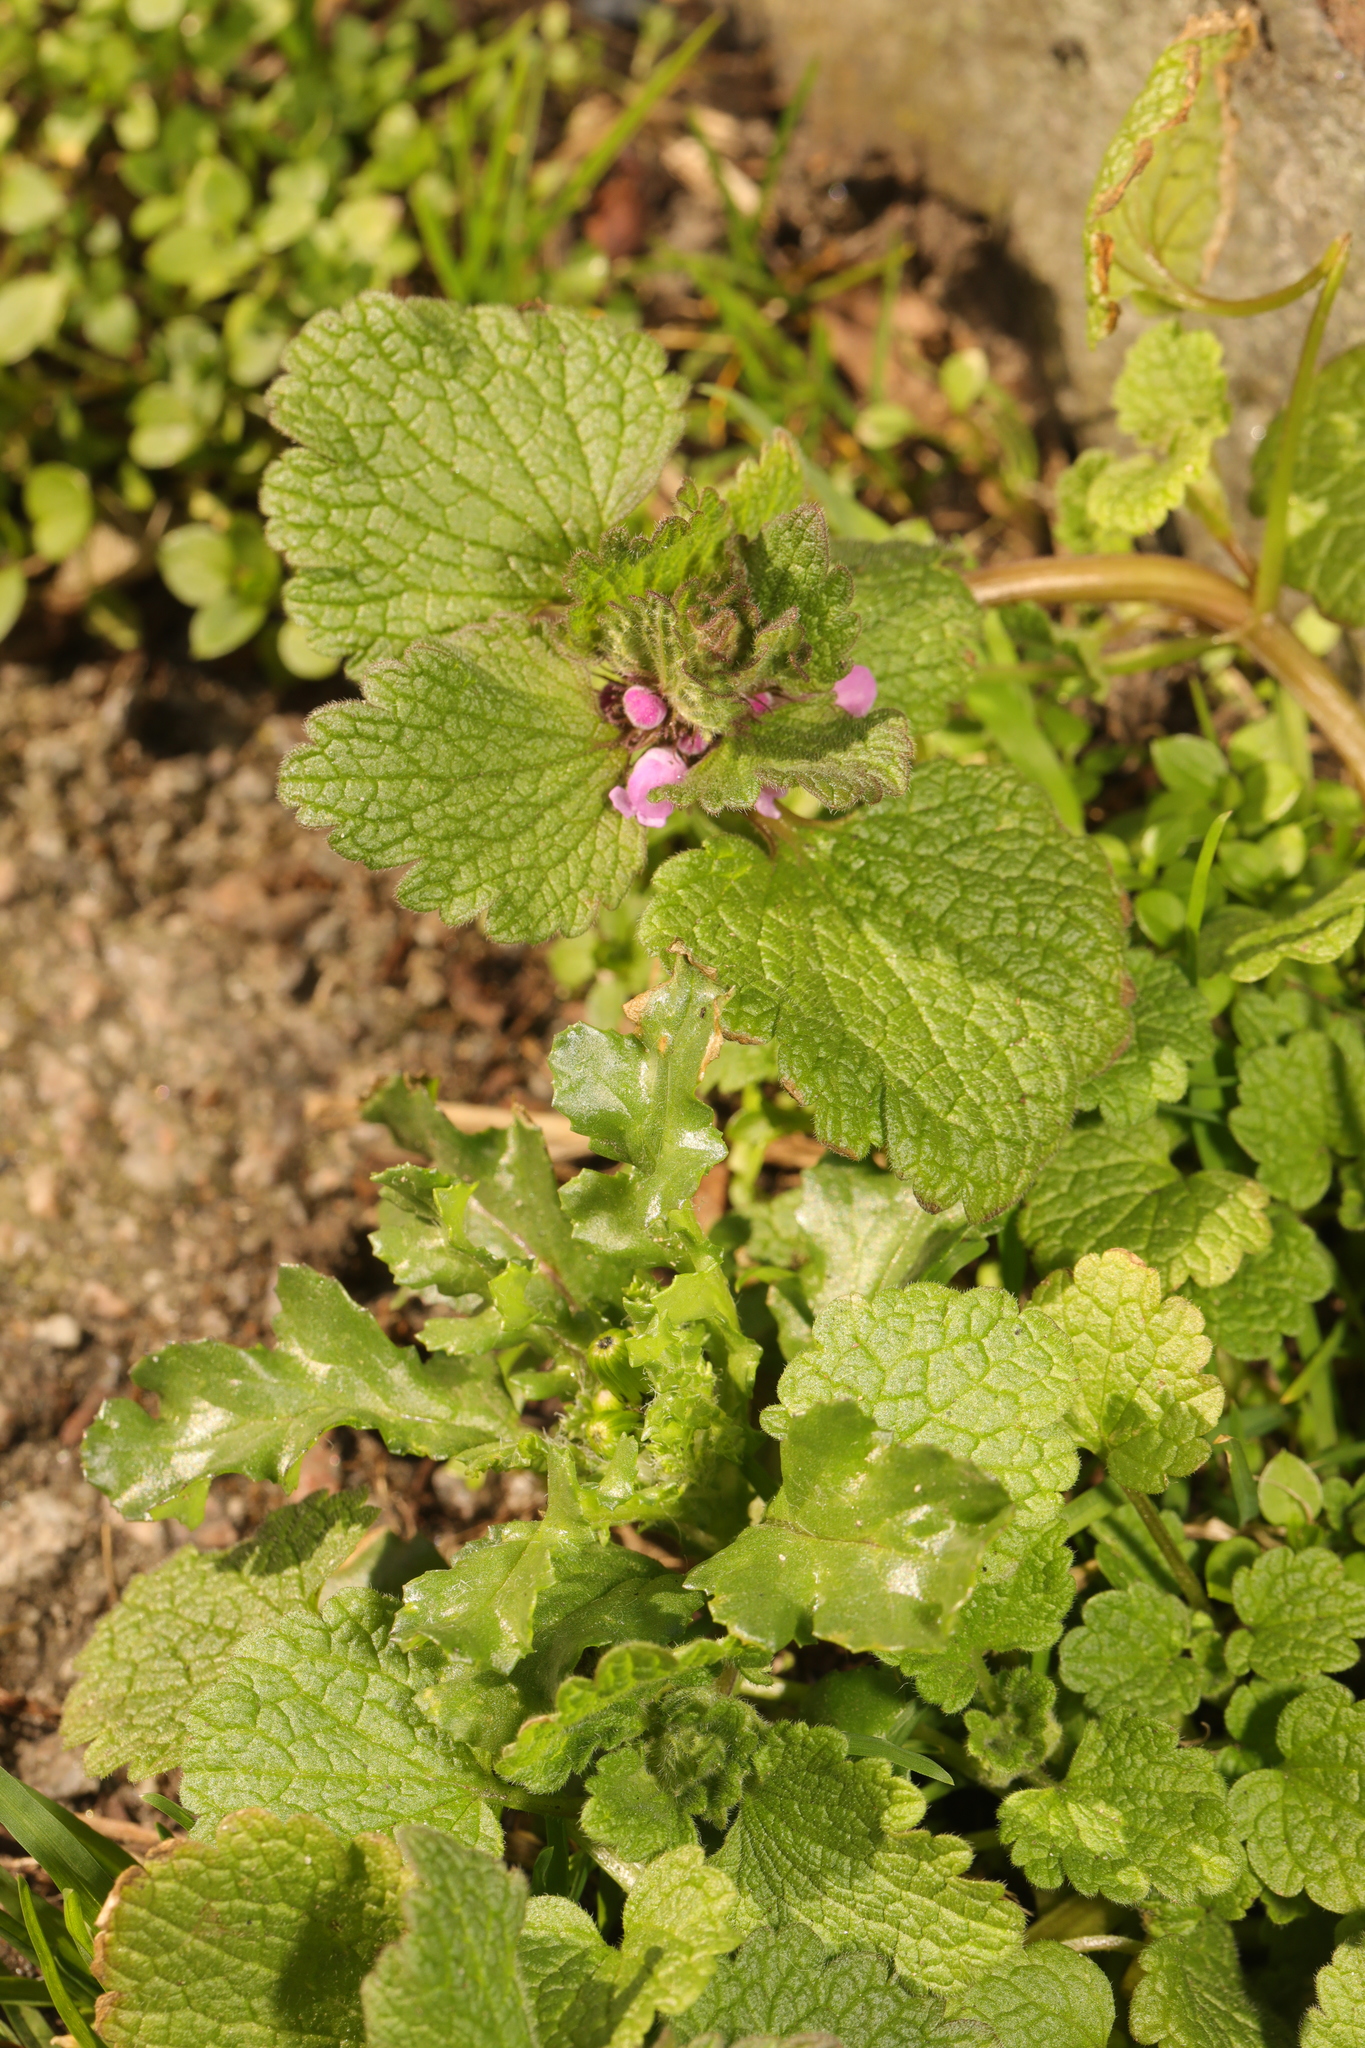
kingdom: Plantae
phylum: Tracheophyta
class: Magnoliopsida
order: Lamiales
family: Lamiaceae
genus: Lamium
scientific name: Lamium purpureum
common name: Red dead-nettle
